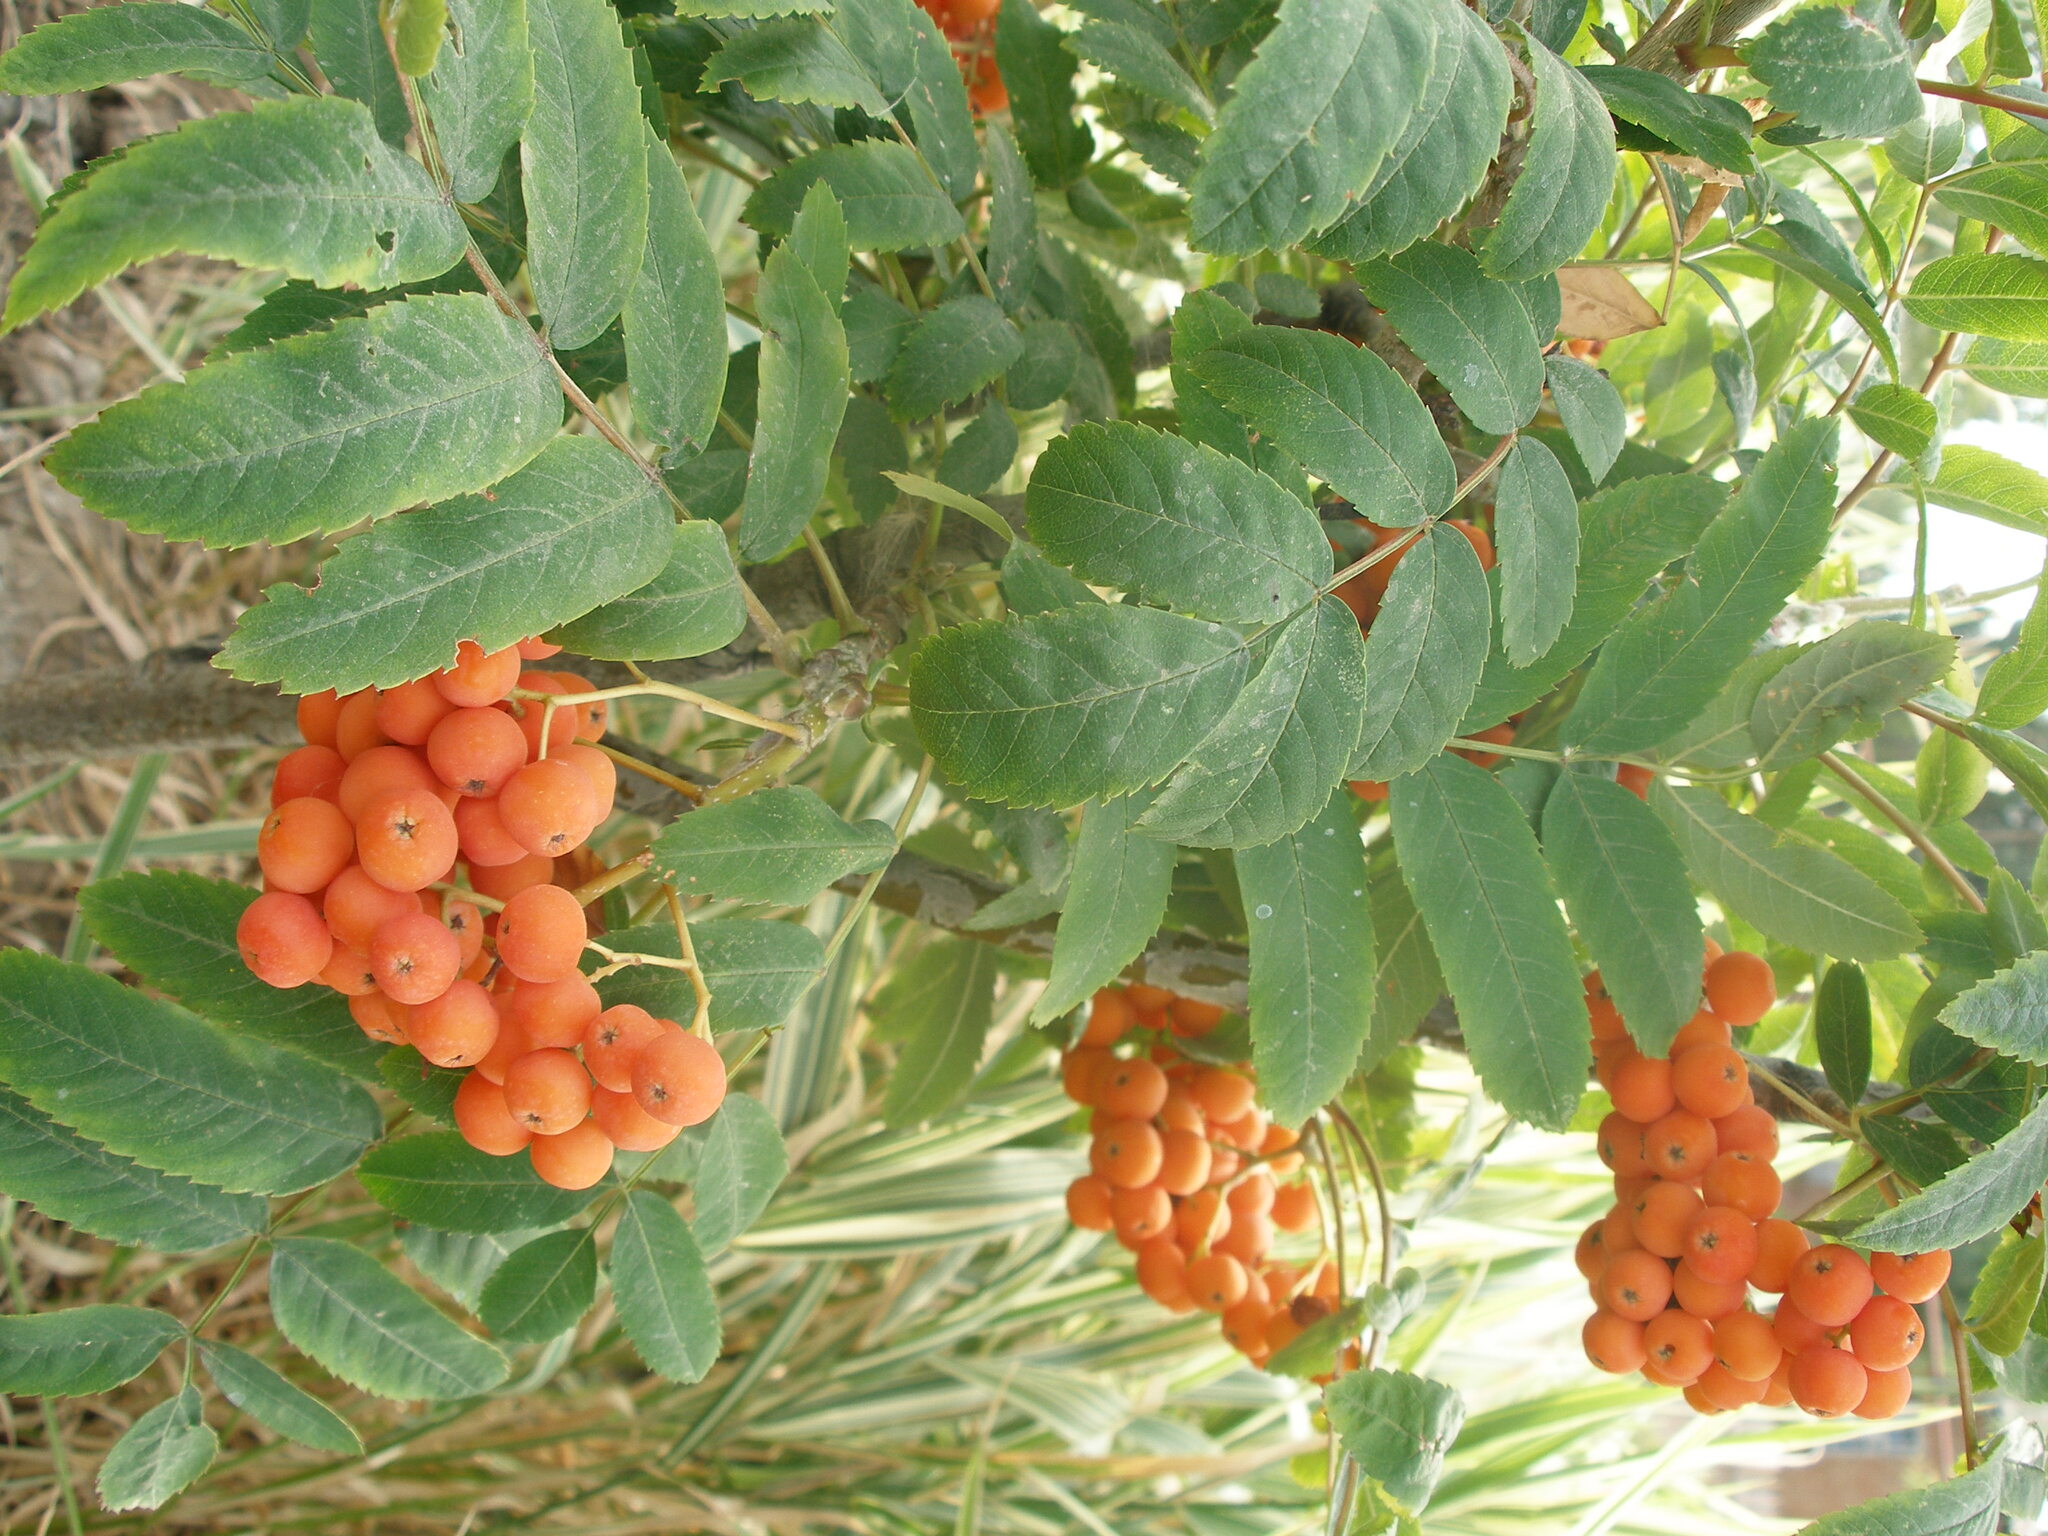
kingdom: Plantae
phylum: Tracheophyta
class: Magnoliopsida
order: Rosales
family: Rosaceae
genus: Sorbus
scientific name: Sorbus aucuparia
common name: Rowan
